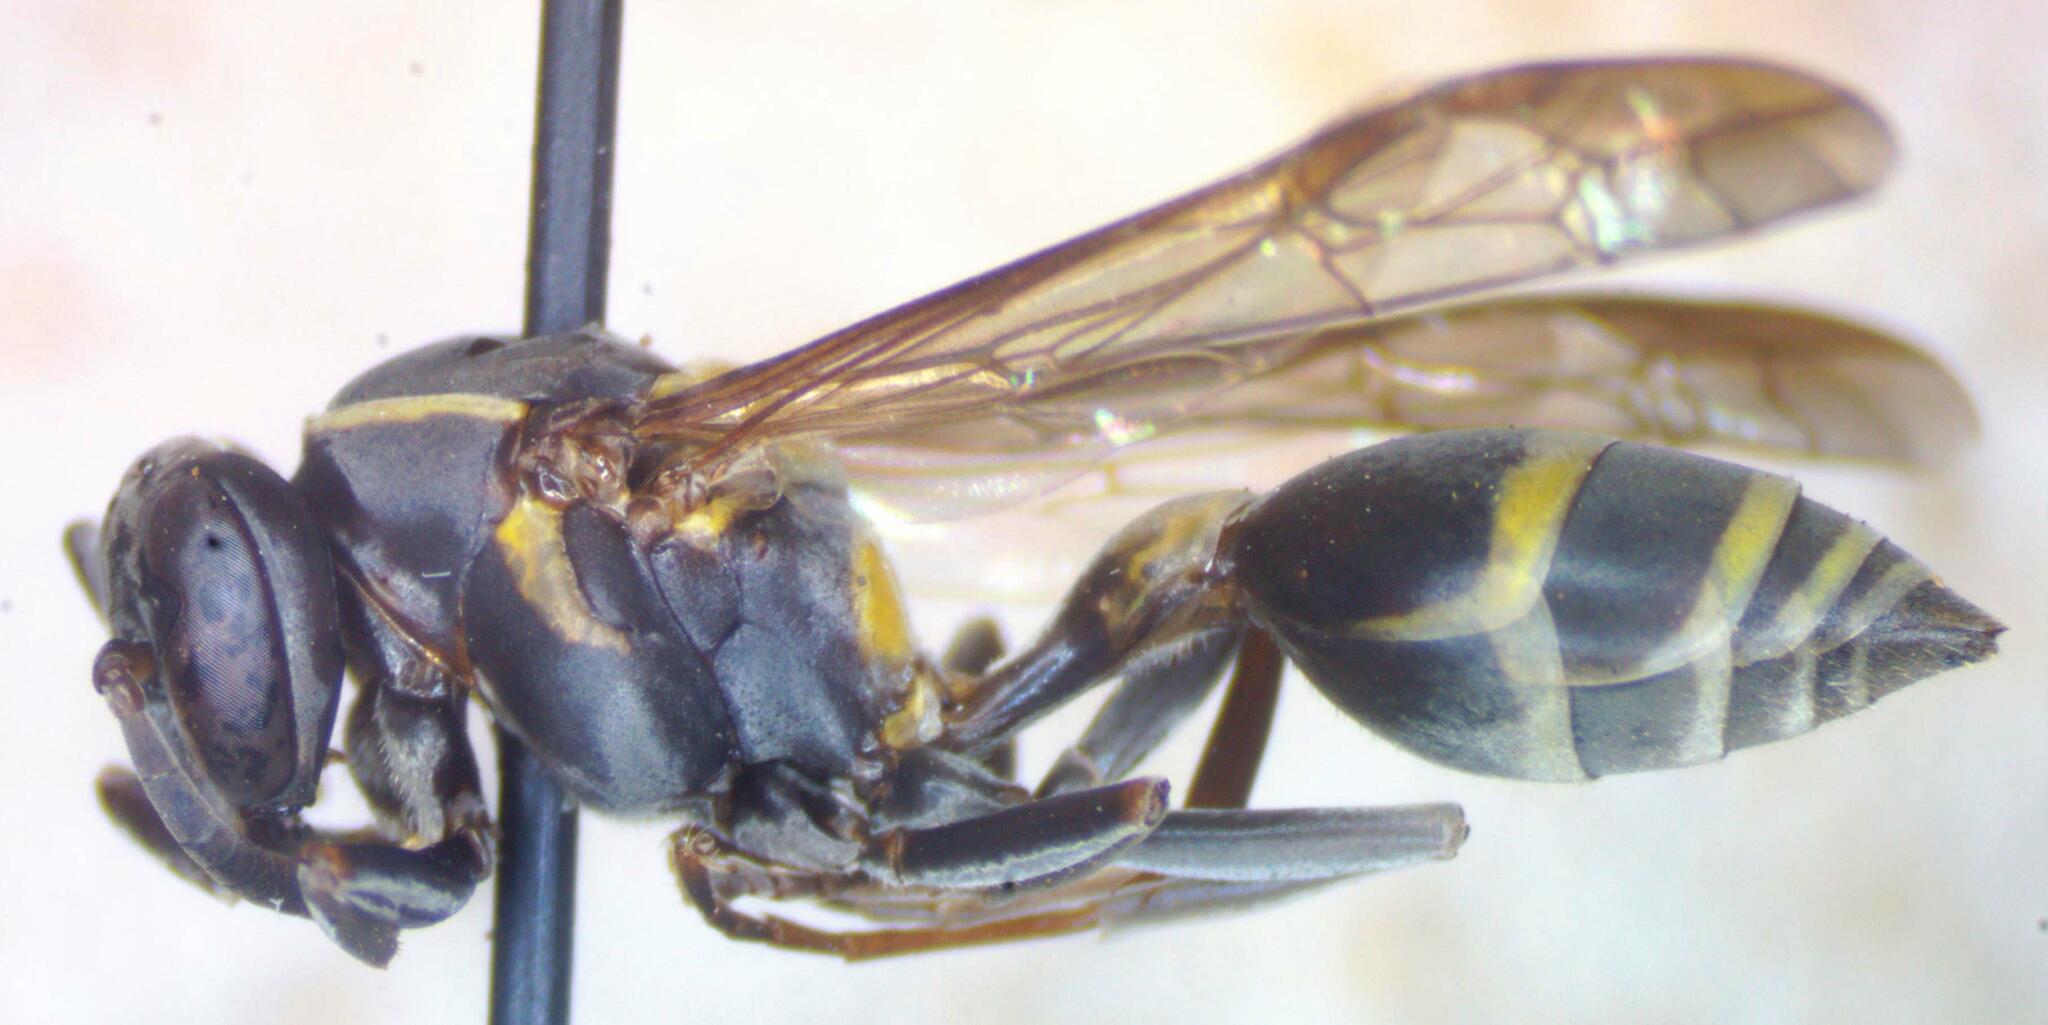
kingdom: Animalia
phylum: Arthropoda
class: Insecta
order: Hymenoptera
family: Eumenidae
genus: Polybia
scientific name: Polybia occidentalis
